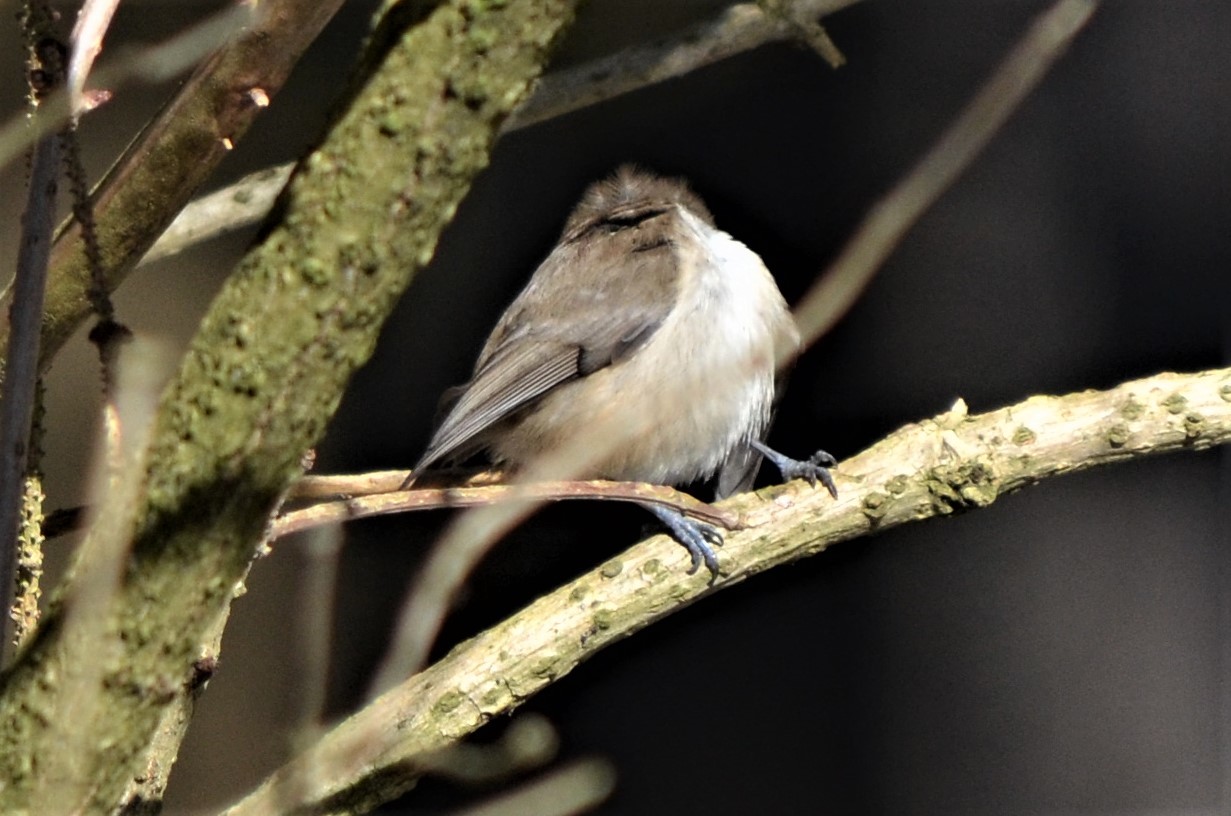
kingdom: Animalia
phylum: Chordata
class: Aves
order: Passeriformes
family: Paridae
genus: Lophophanes
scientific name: Lophophanes cristatus
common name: European crested tit
